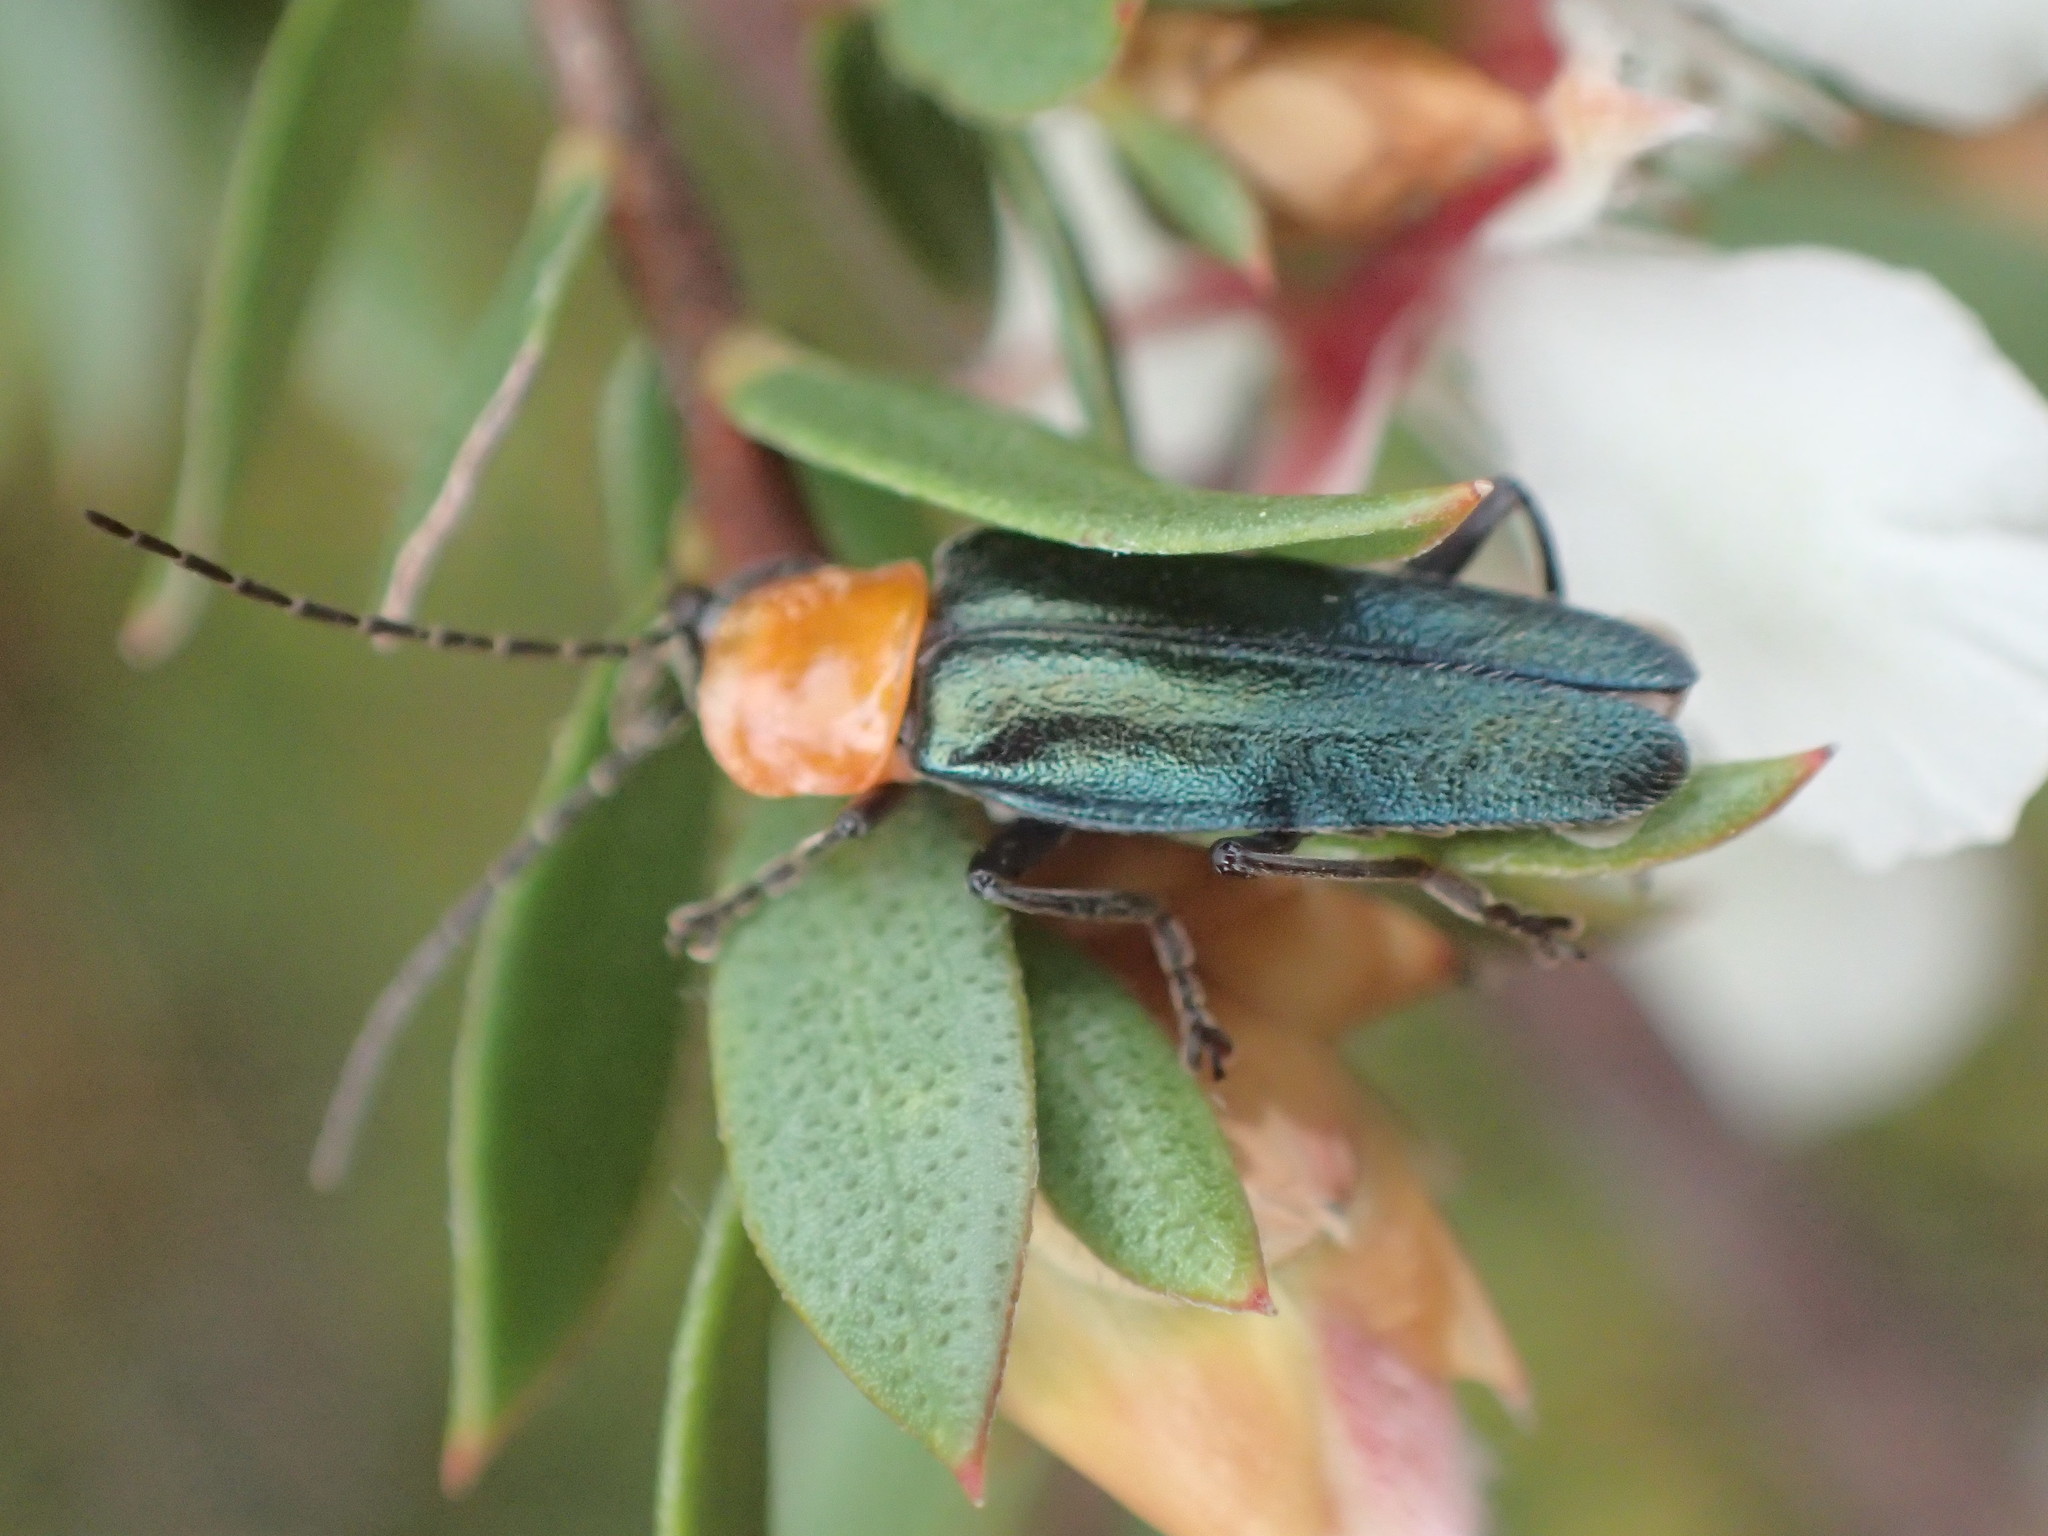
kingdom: Animalia
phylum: Arthropoda
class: Insecta
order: Coleoptera
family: Cantharidae
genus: Chauliognathus
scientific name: Chauliognathus
